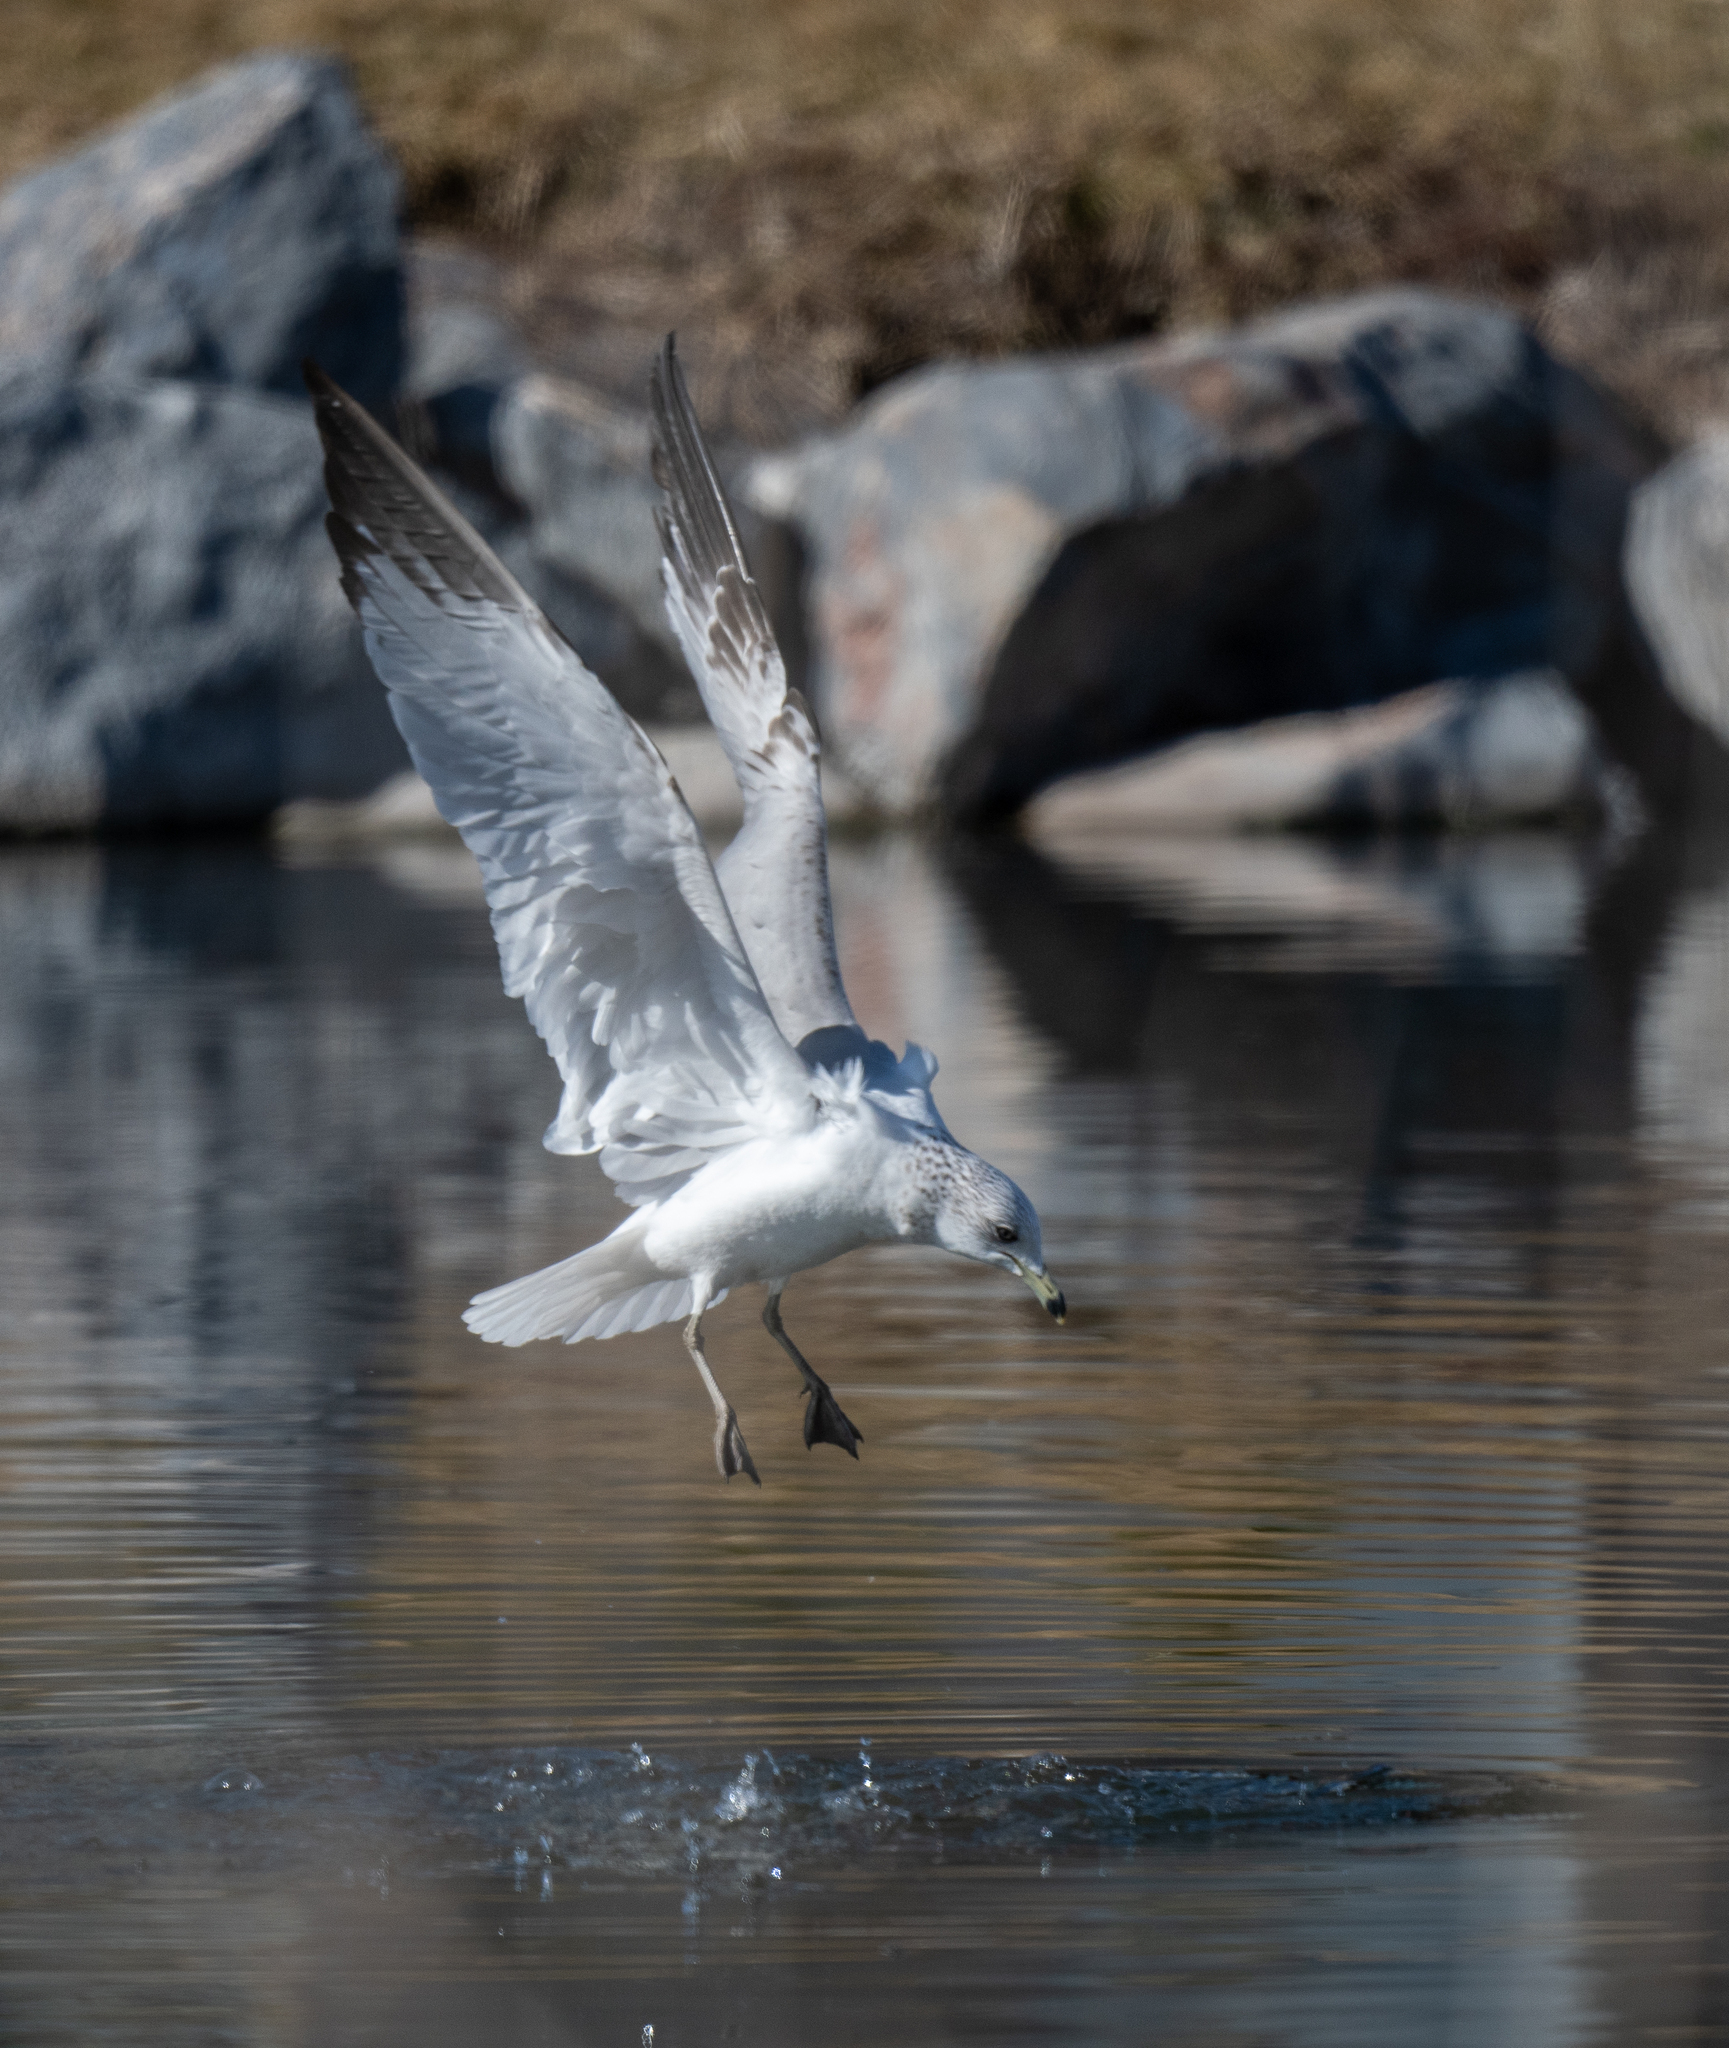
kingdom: Animalia
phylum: Chordata
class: Aves
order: Charadriiformes
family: Laridae
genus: Larus
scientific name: Larus delawarensis
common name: Ring-billed gull
